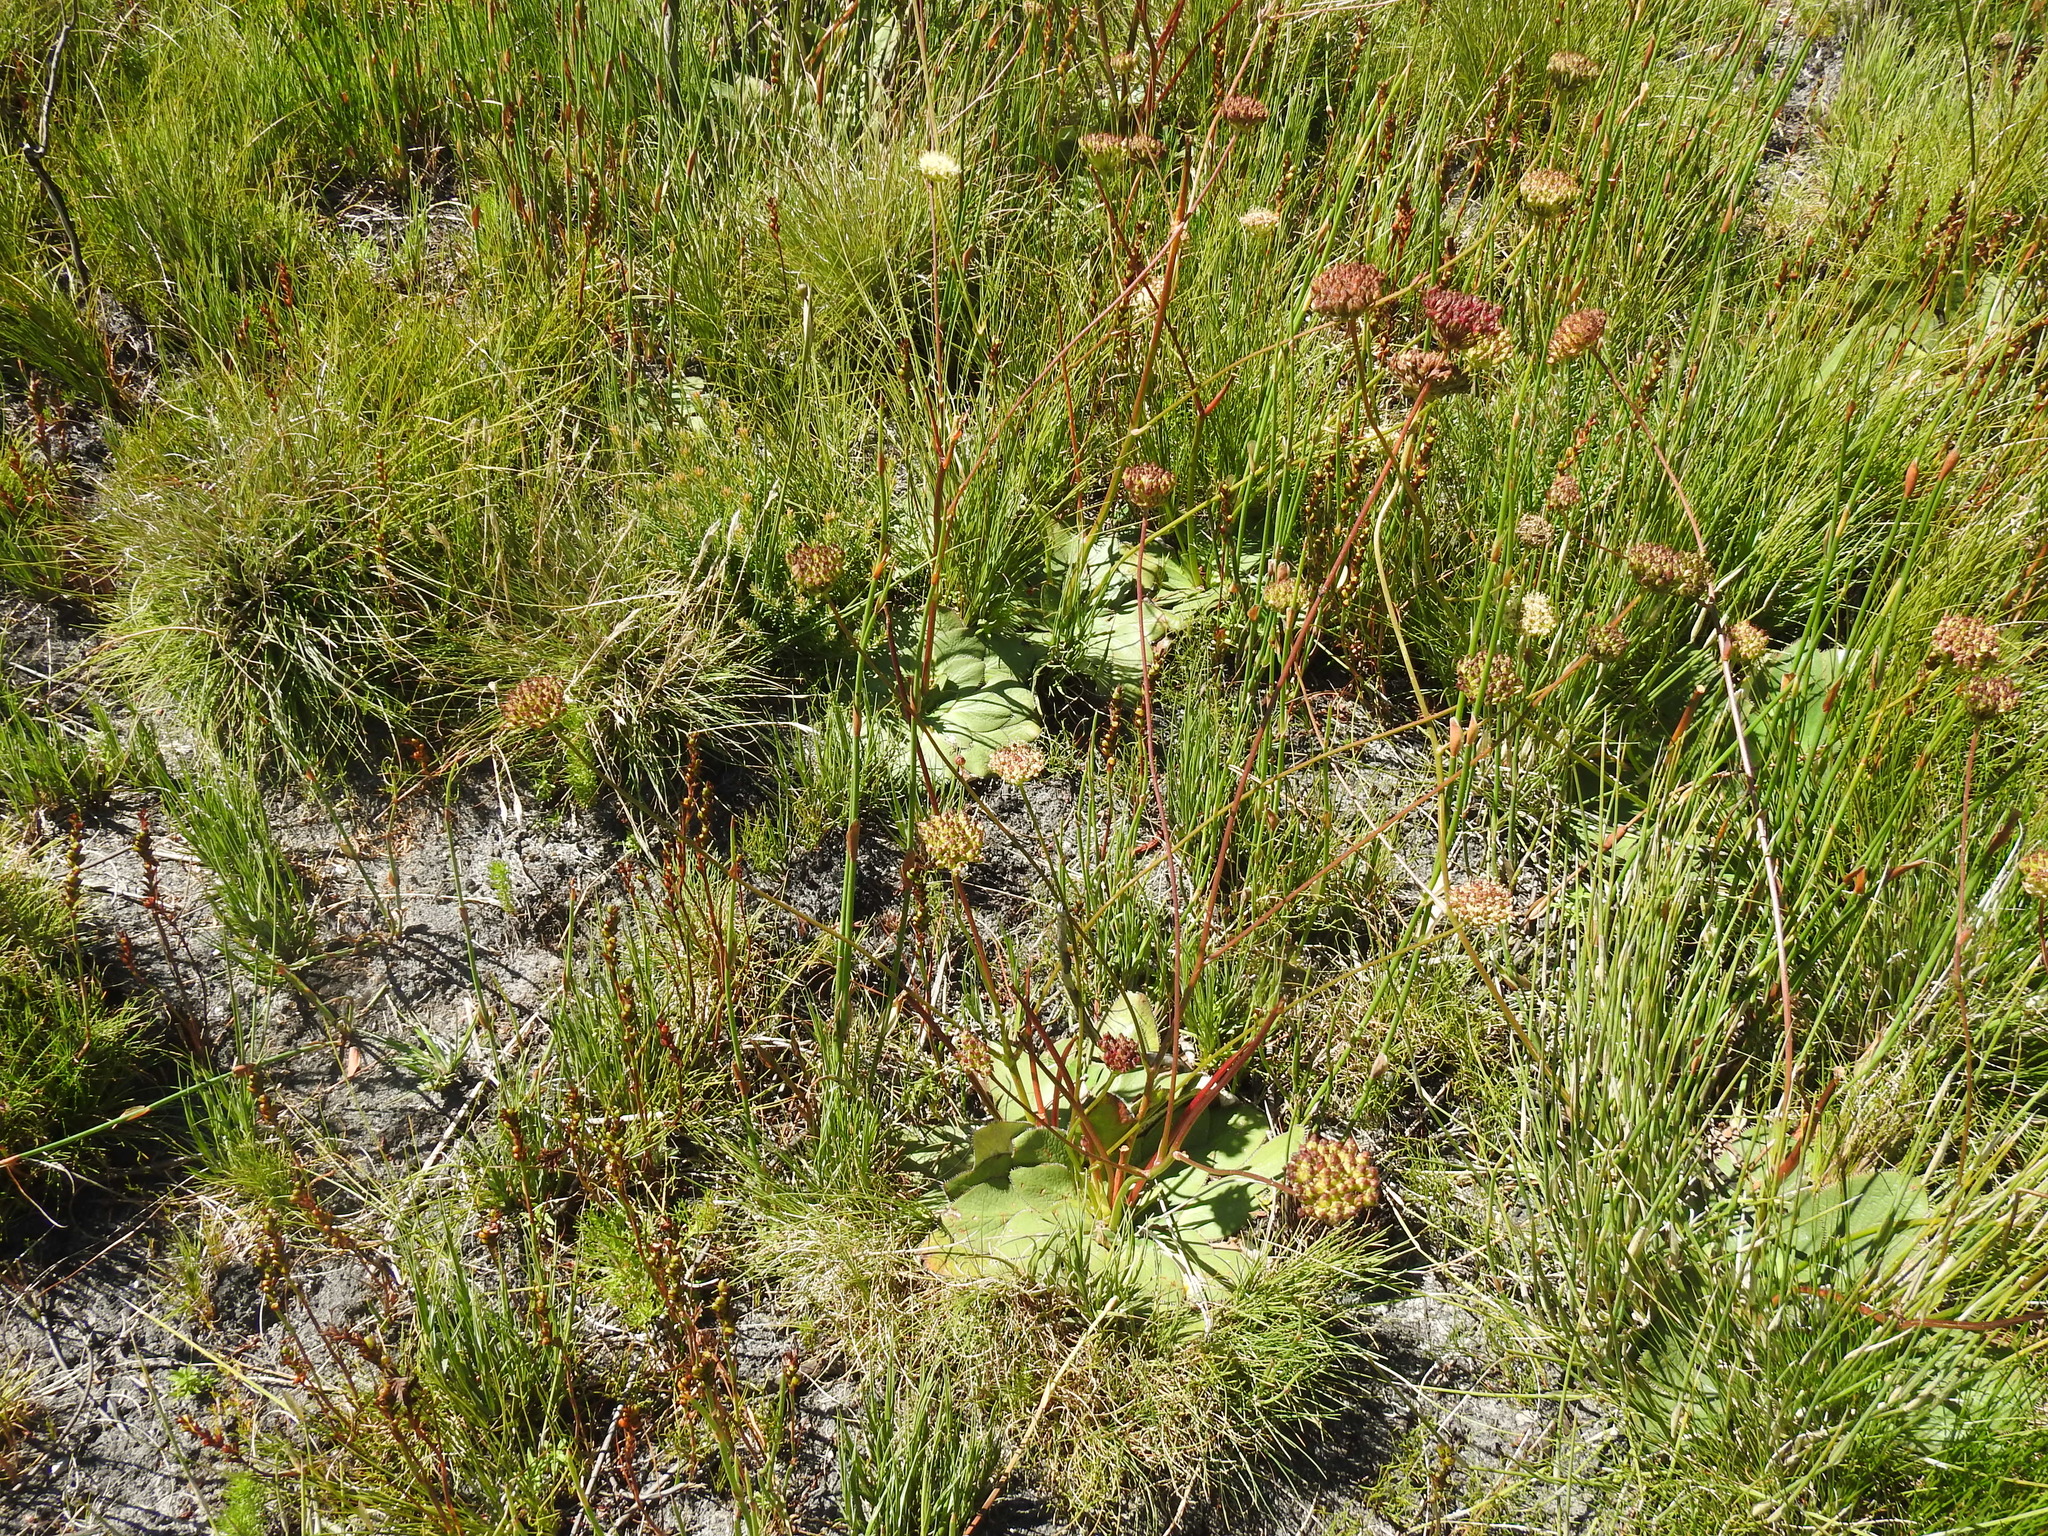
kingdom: Plantae
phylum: Tracheophyta
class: Magnoliopsida
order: Apiales
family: Apiaceae
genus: Hermas
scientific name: Hermas ciliata
